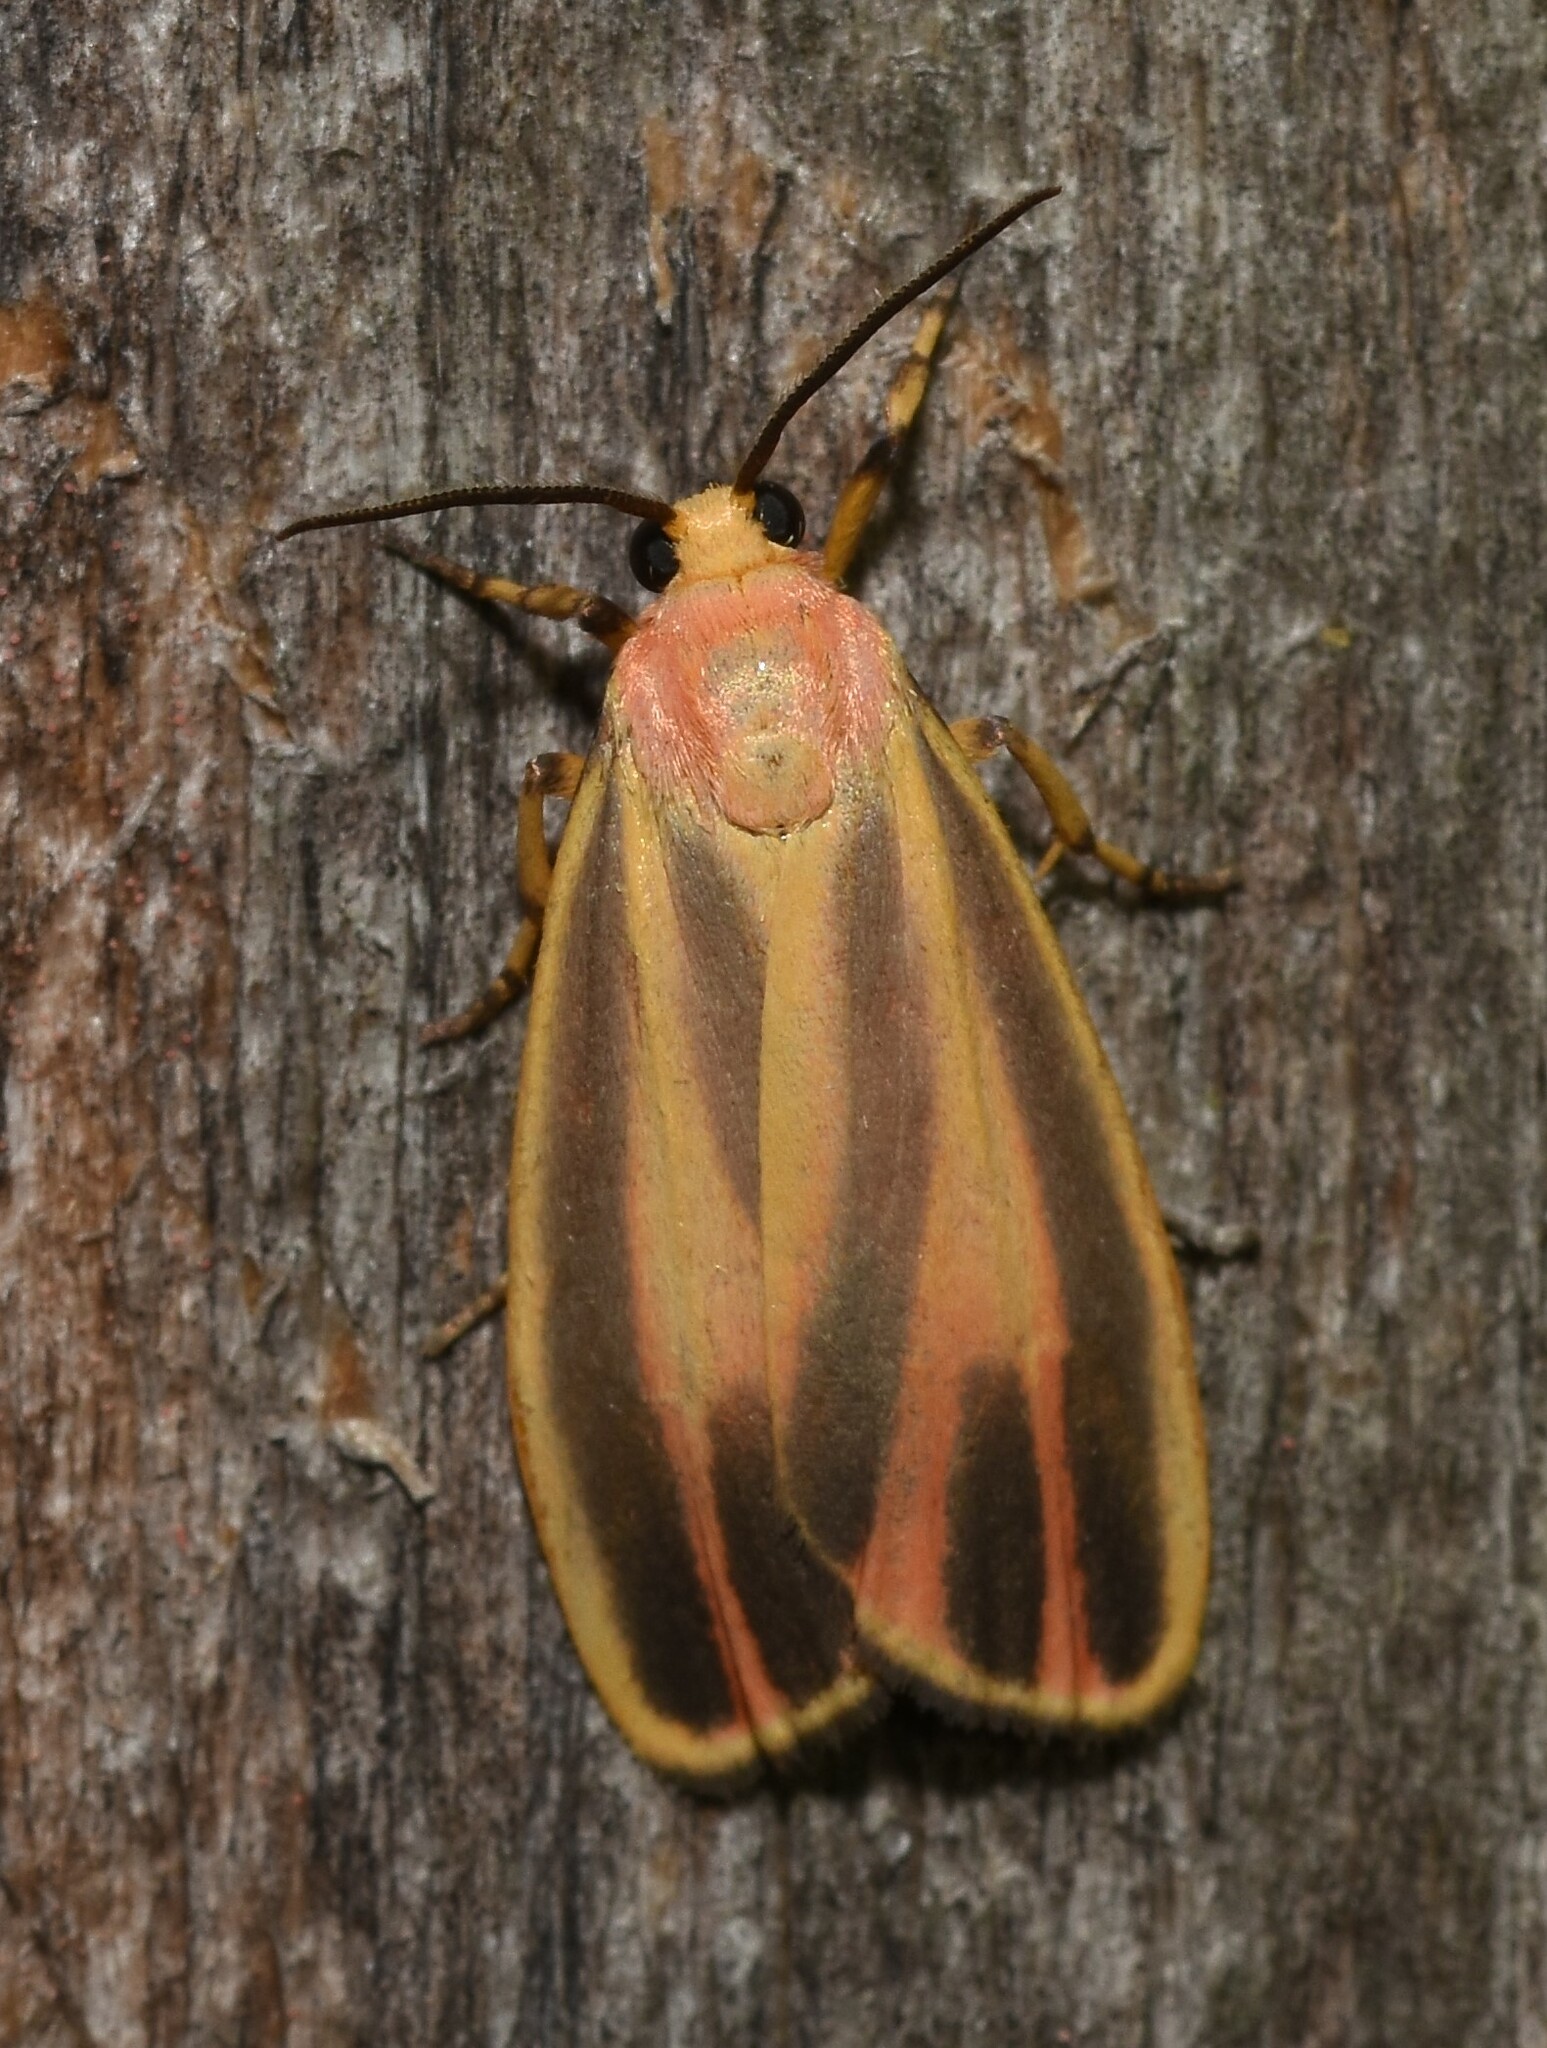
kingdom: Animalia
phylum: Arthropoda
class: Insecta
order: Lepidoptera
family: Erebidae
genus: Hypoprepia
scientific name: Hypoprepia fucosa
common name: Painted lichen moth
